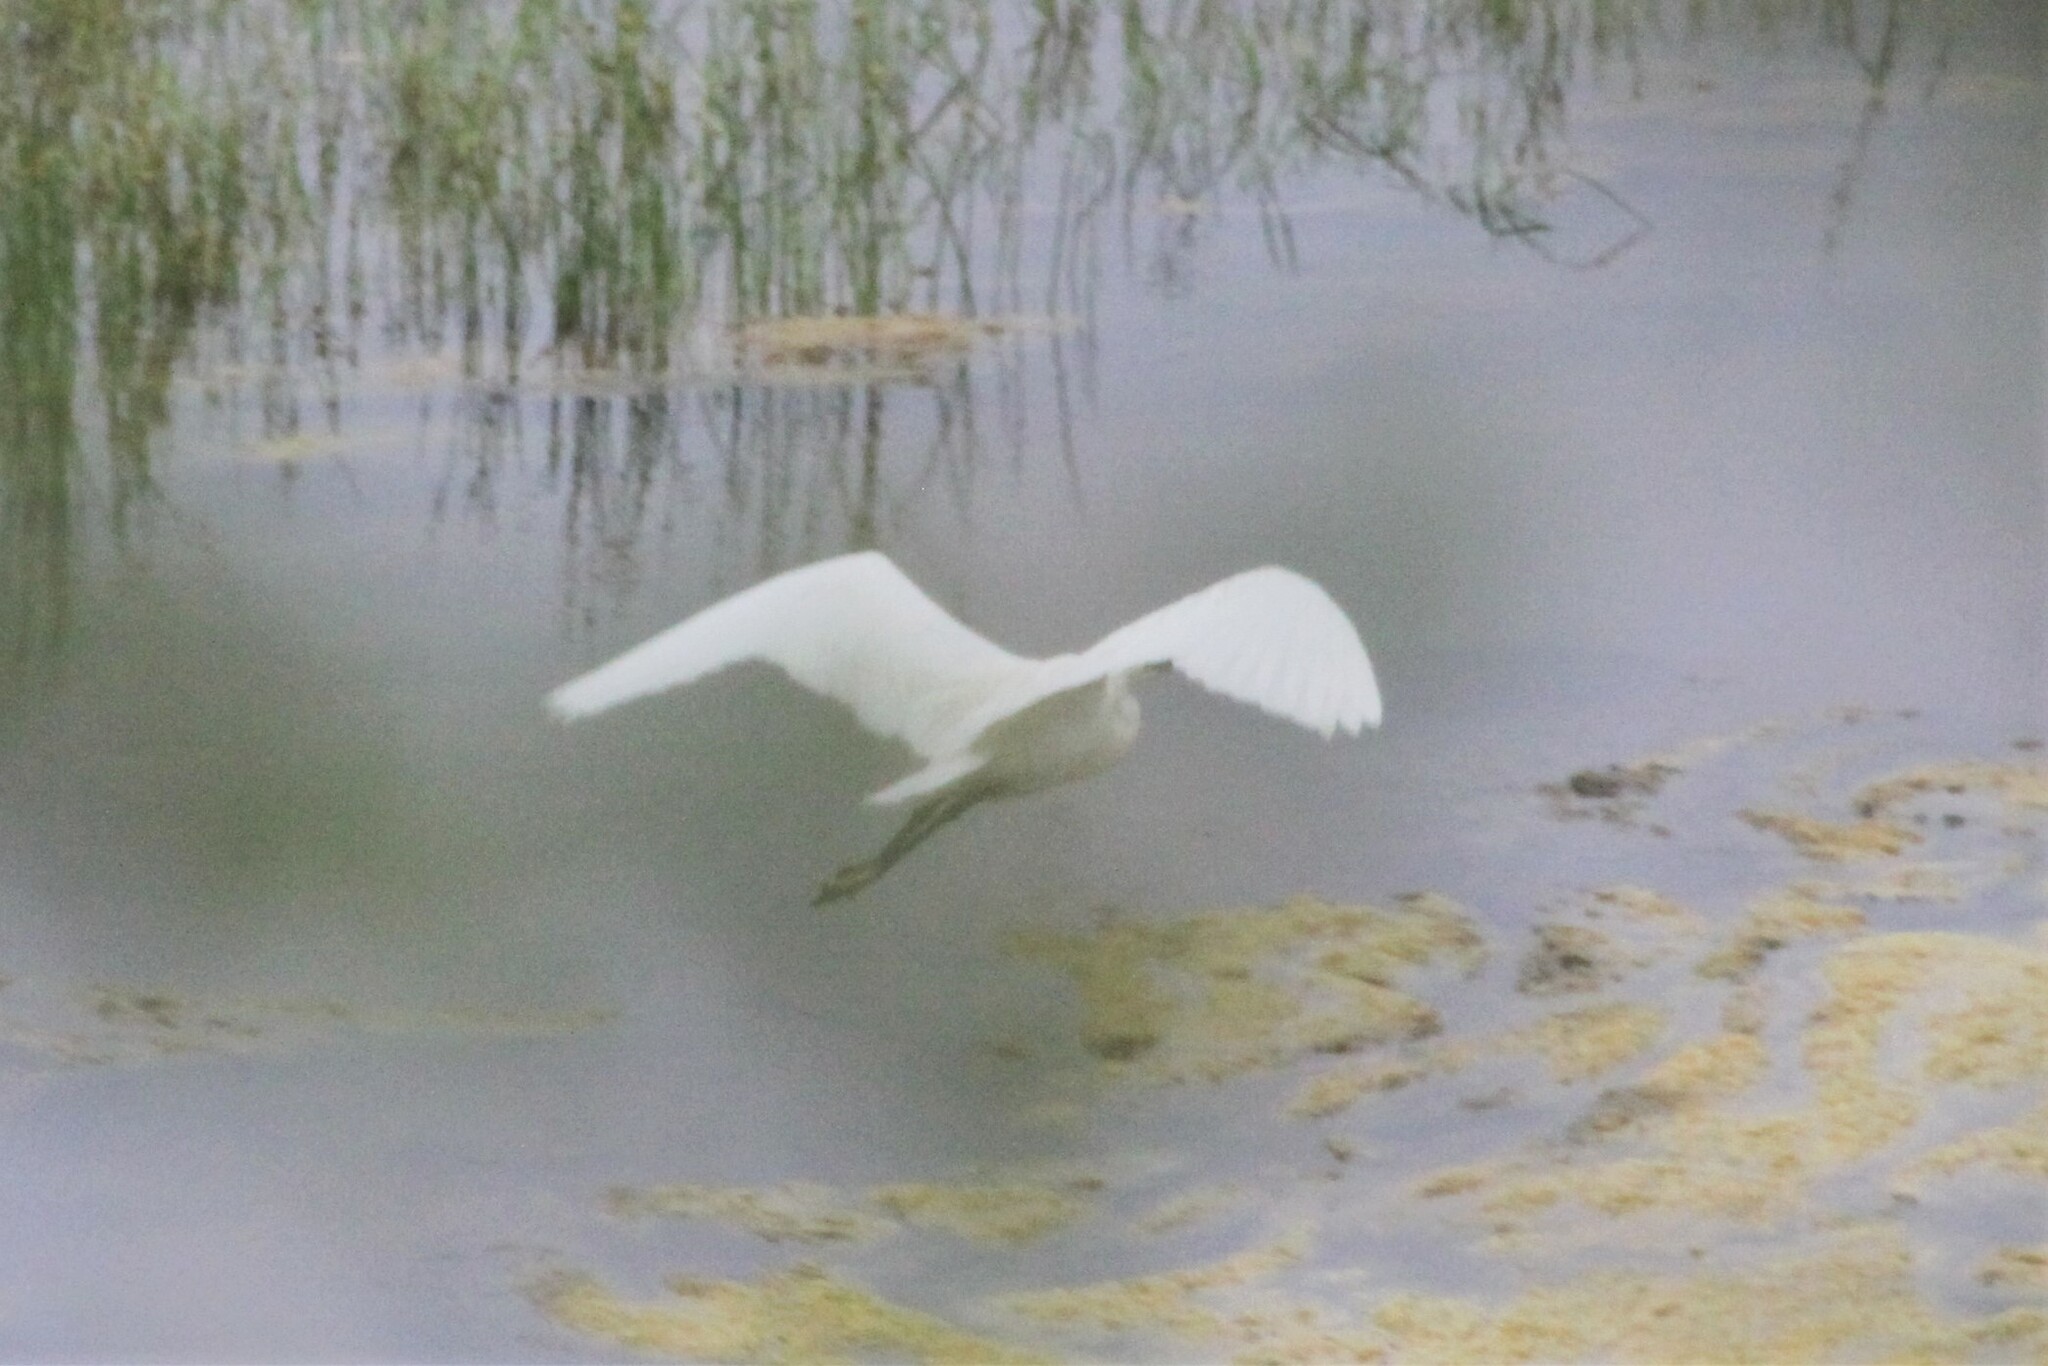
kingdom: Animalia
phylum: Chordata
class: Aves
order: Pelecaniformes
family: Ardeidae
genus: Egretta
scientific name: Egretta garzetta
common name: Little egret
